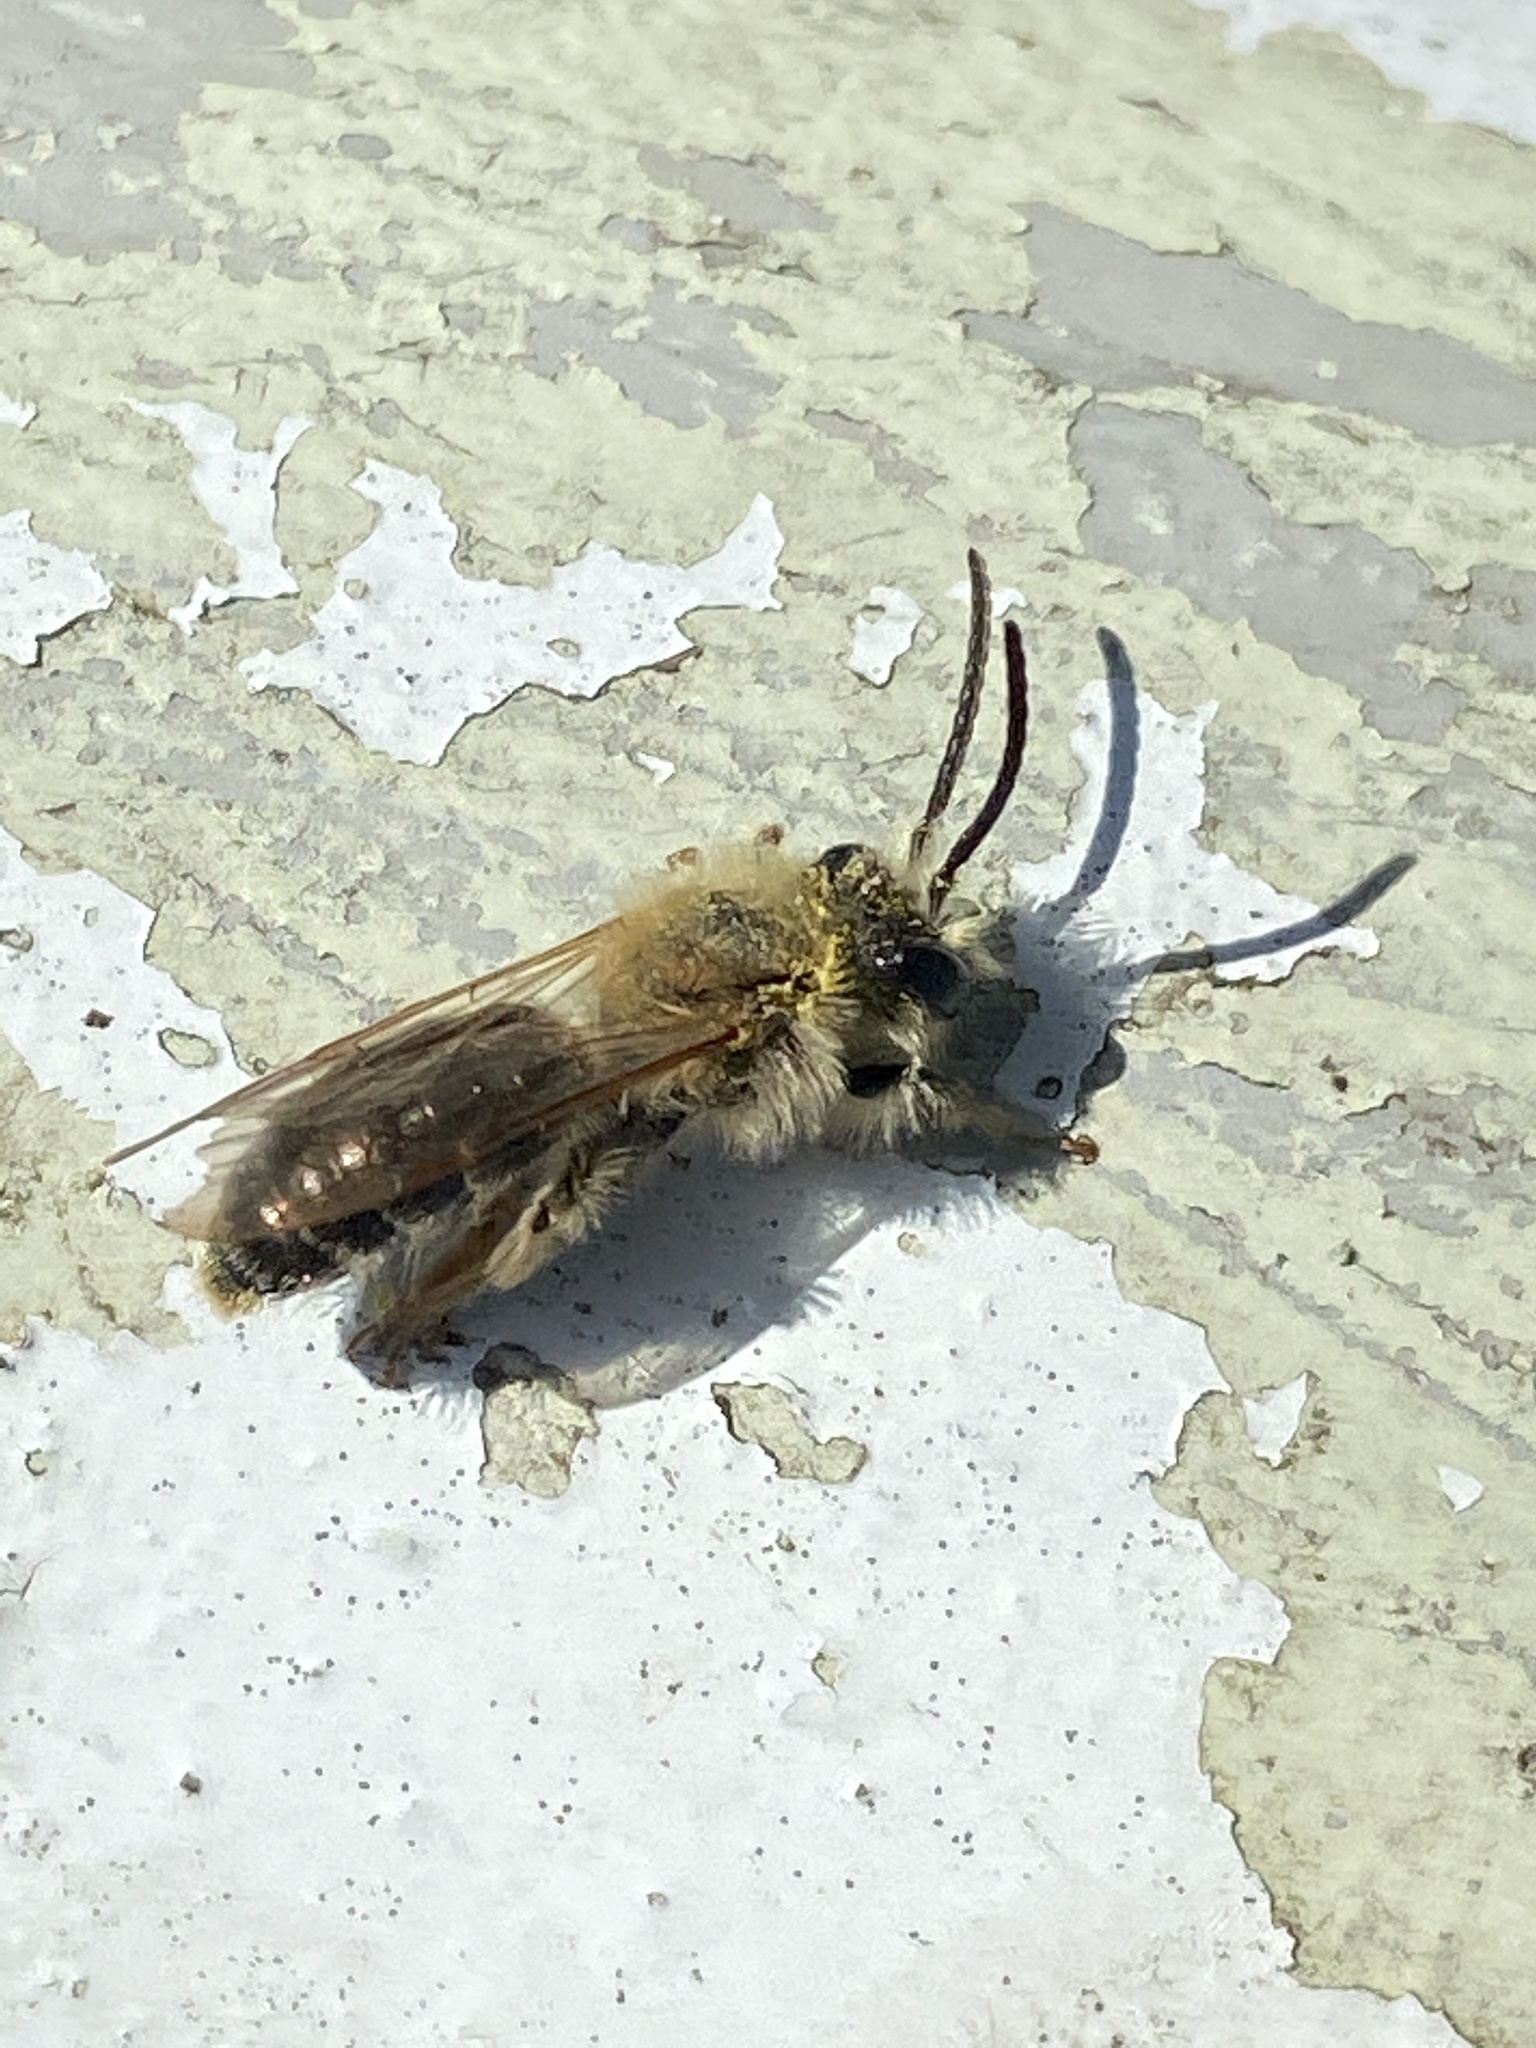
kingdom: Animalia
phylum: Arthropoda
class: Insecta
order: Hymenoptera
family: Andrenidae
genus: Andrena
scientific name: Andrena haemorrhoa
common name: Early mining bee
